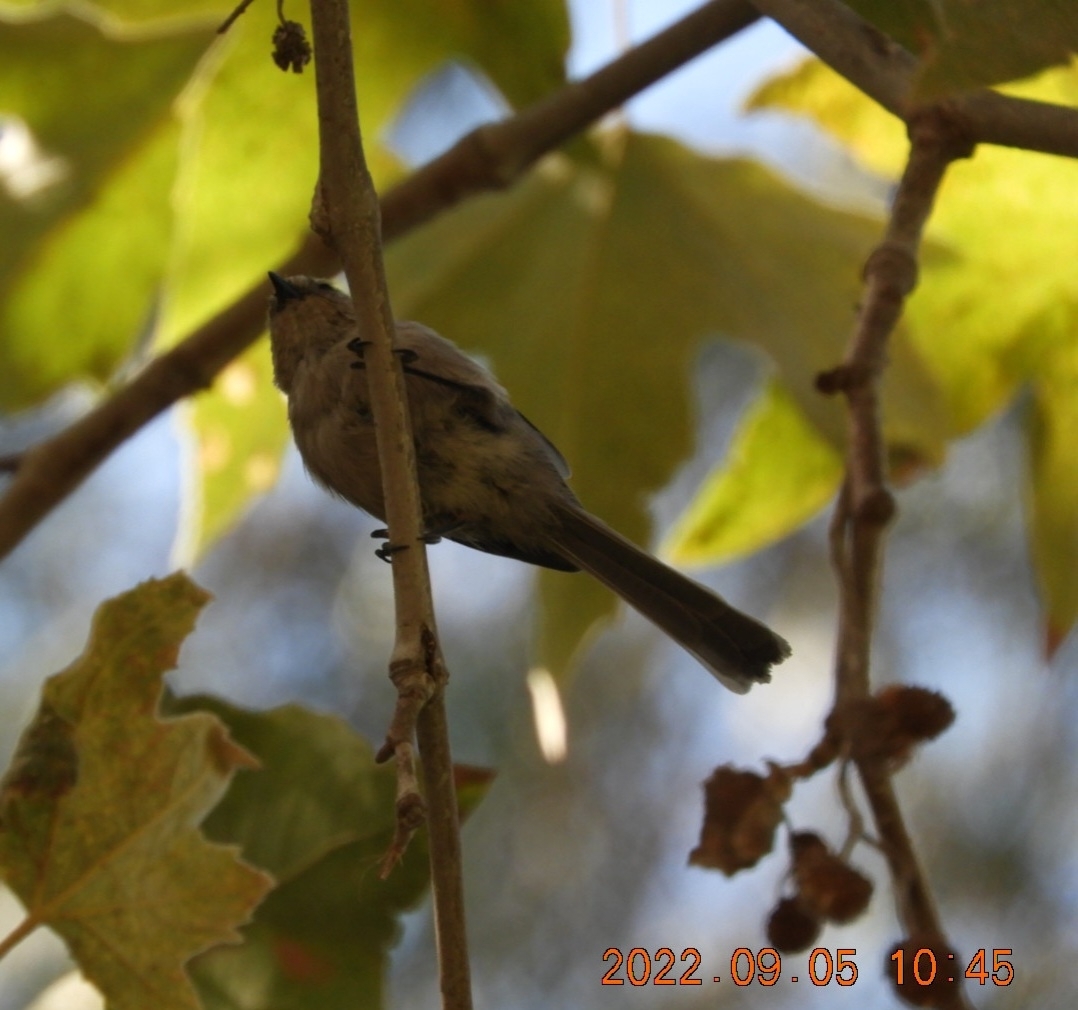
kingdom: Animalia
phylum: Chordata
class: Aves
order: Passeriformes
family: Aegithalidae
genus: Psaltriparus
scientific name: Psaltriparus minimus
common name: American bushtit
